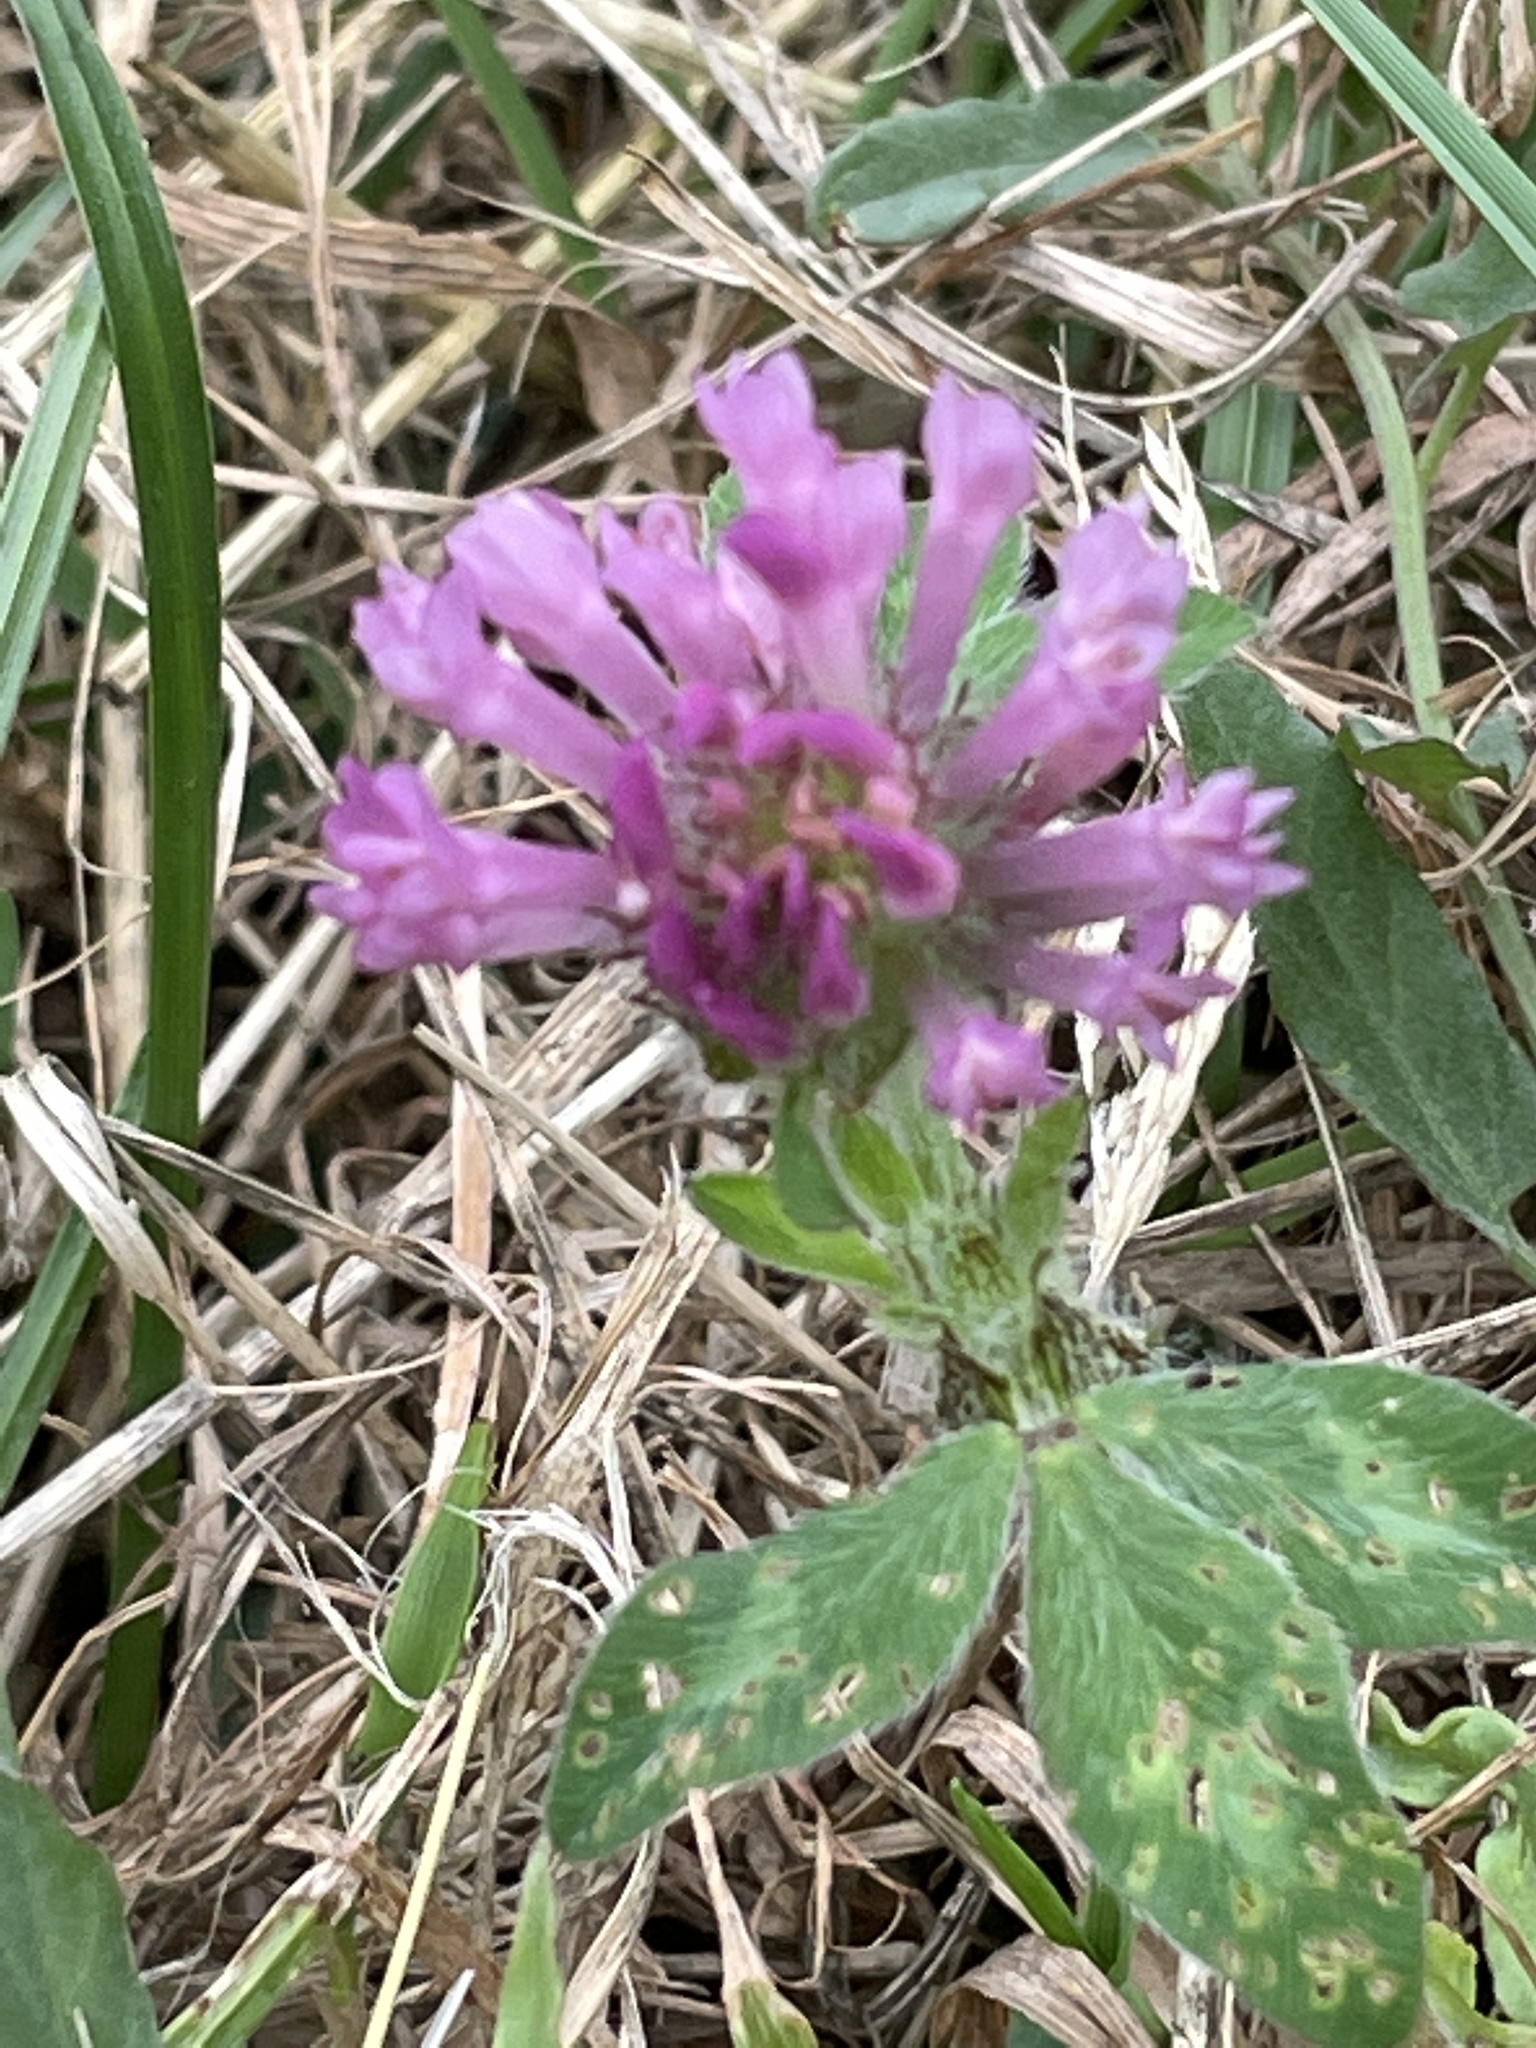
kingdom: Plantae
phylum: Tracheophyta
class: Magnoliopsida
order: Fabales
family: Fabaceae
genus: Trifolium
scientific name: Trifolium pratense
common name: Red clover
